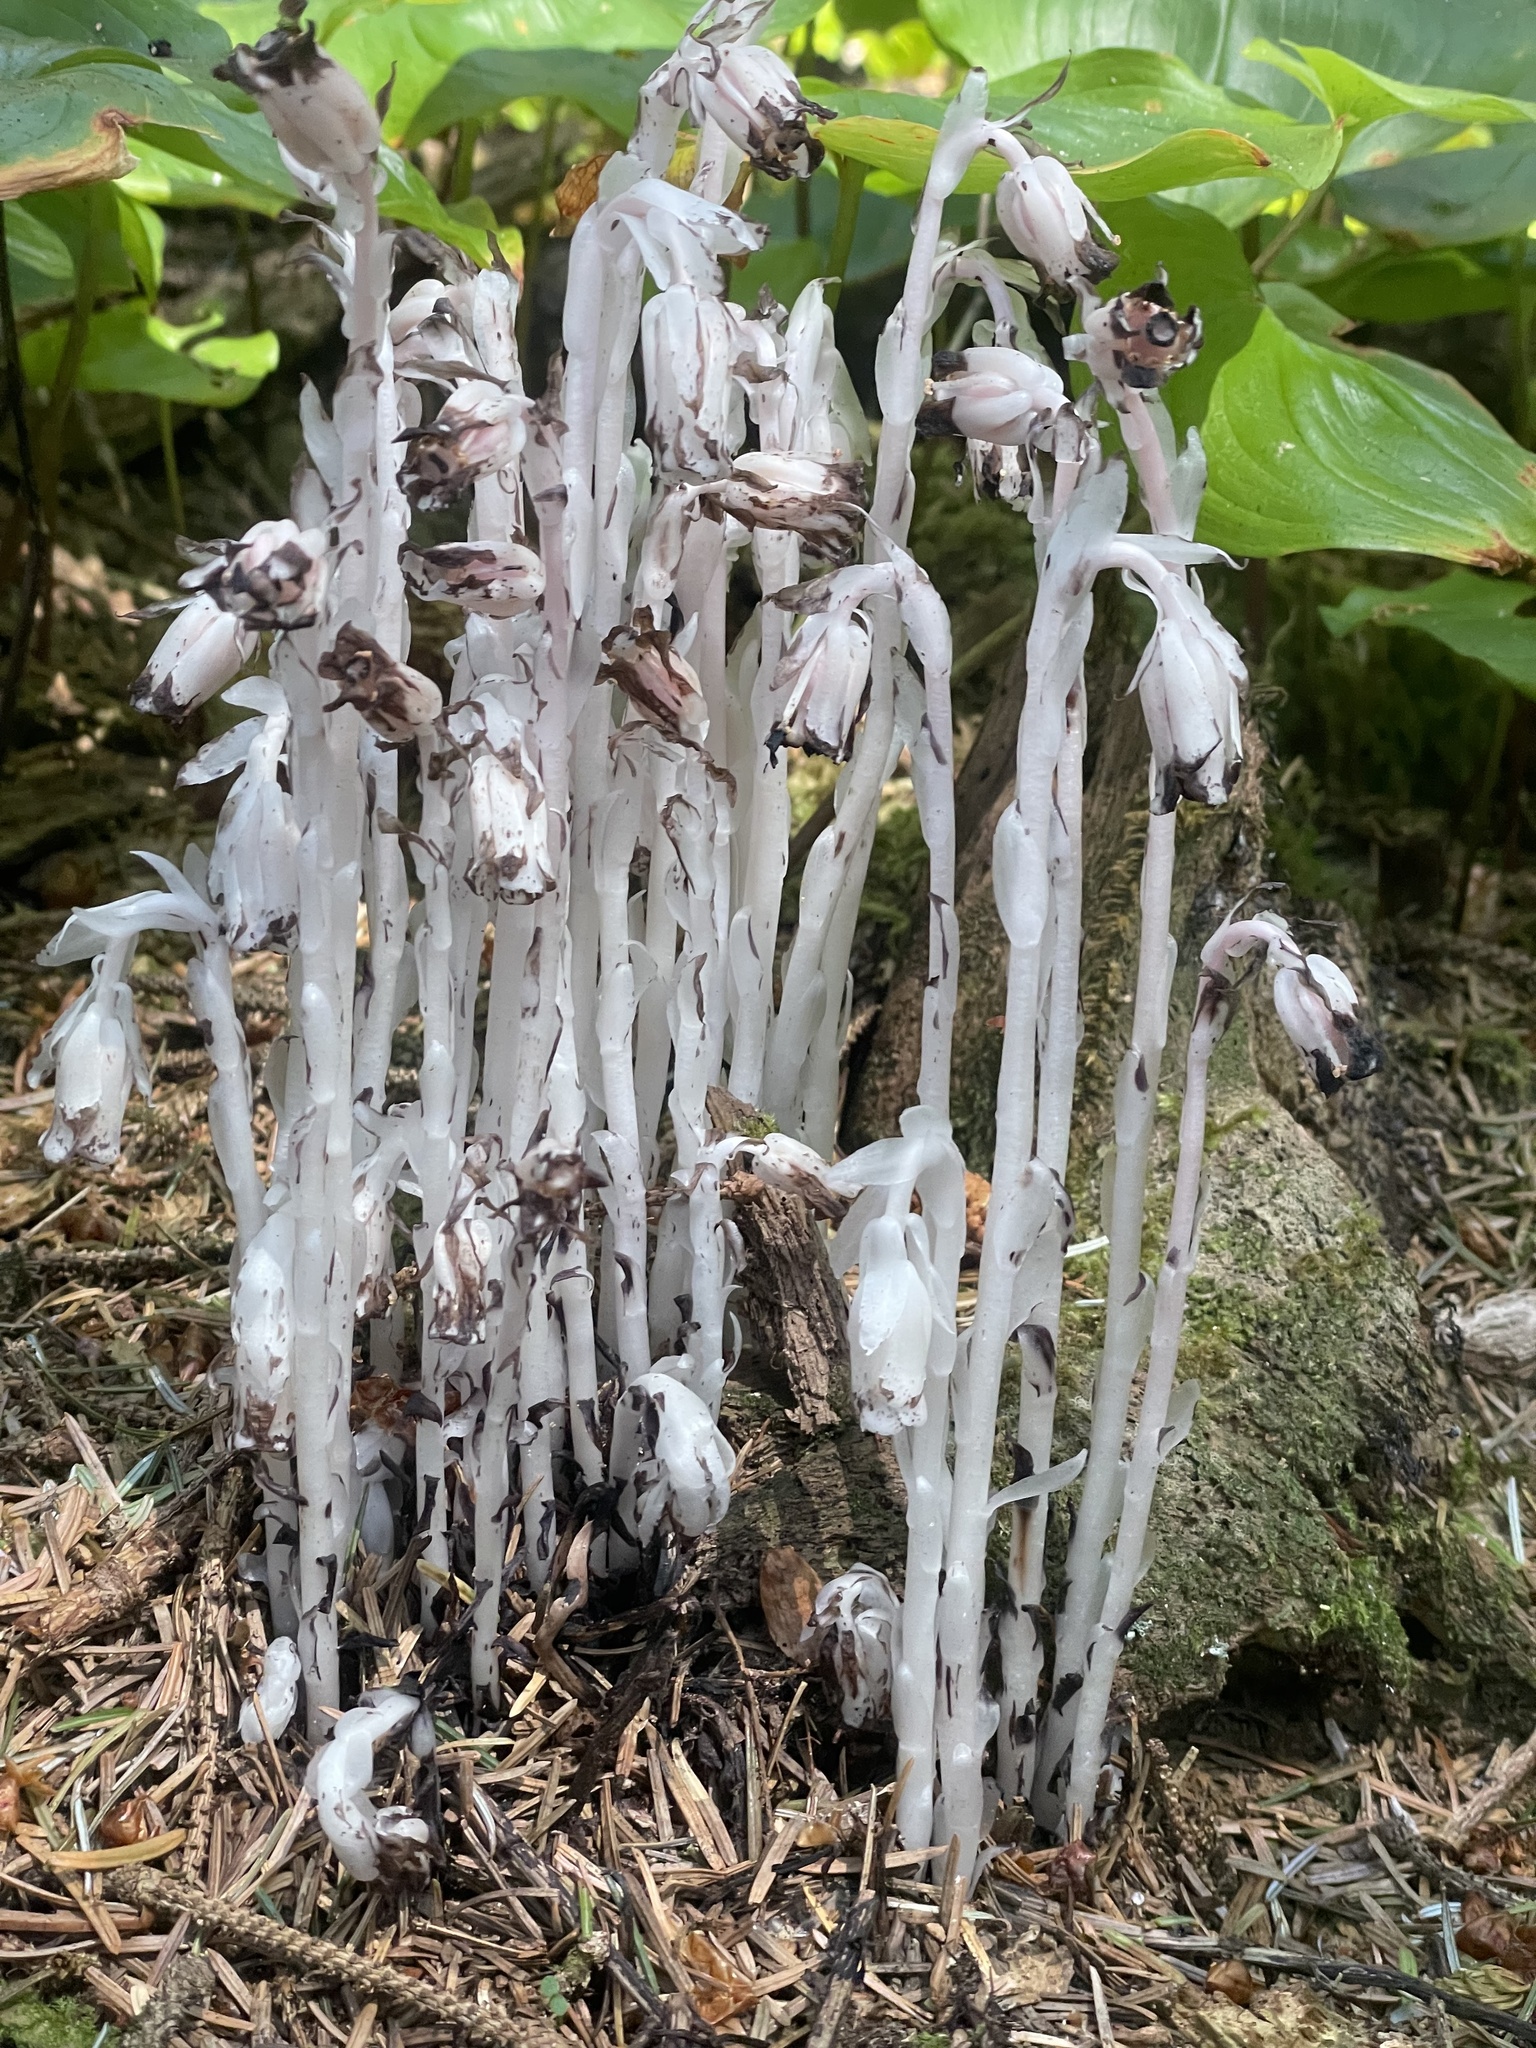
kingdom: Plantae
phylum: Tracheophyta
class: Magnoliopsida
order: Ericales
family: Ericaceae
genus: Monotropa
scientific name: Monotropa uniflora
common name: Convulsion root
